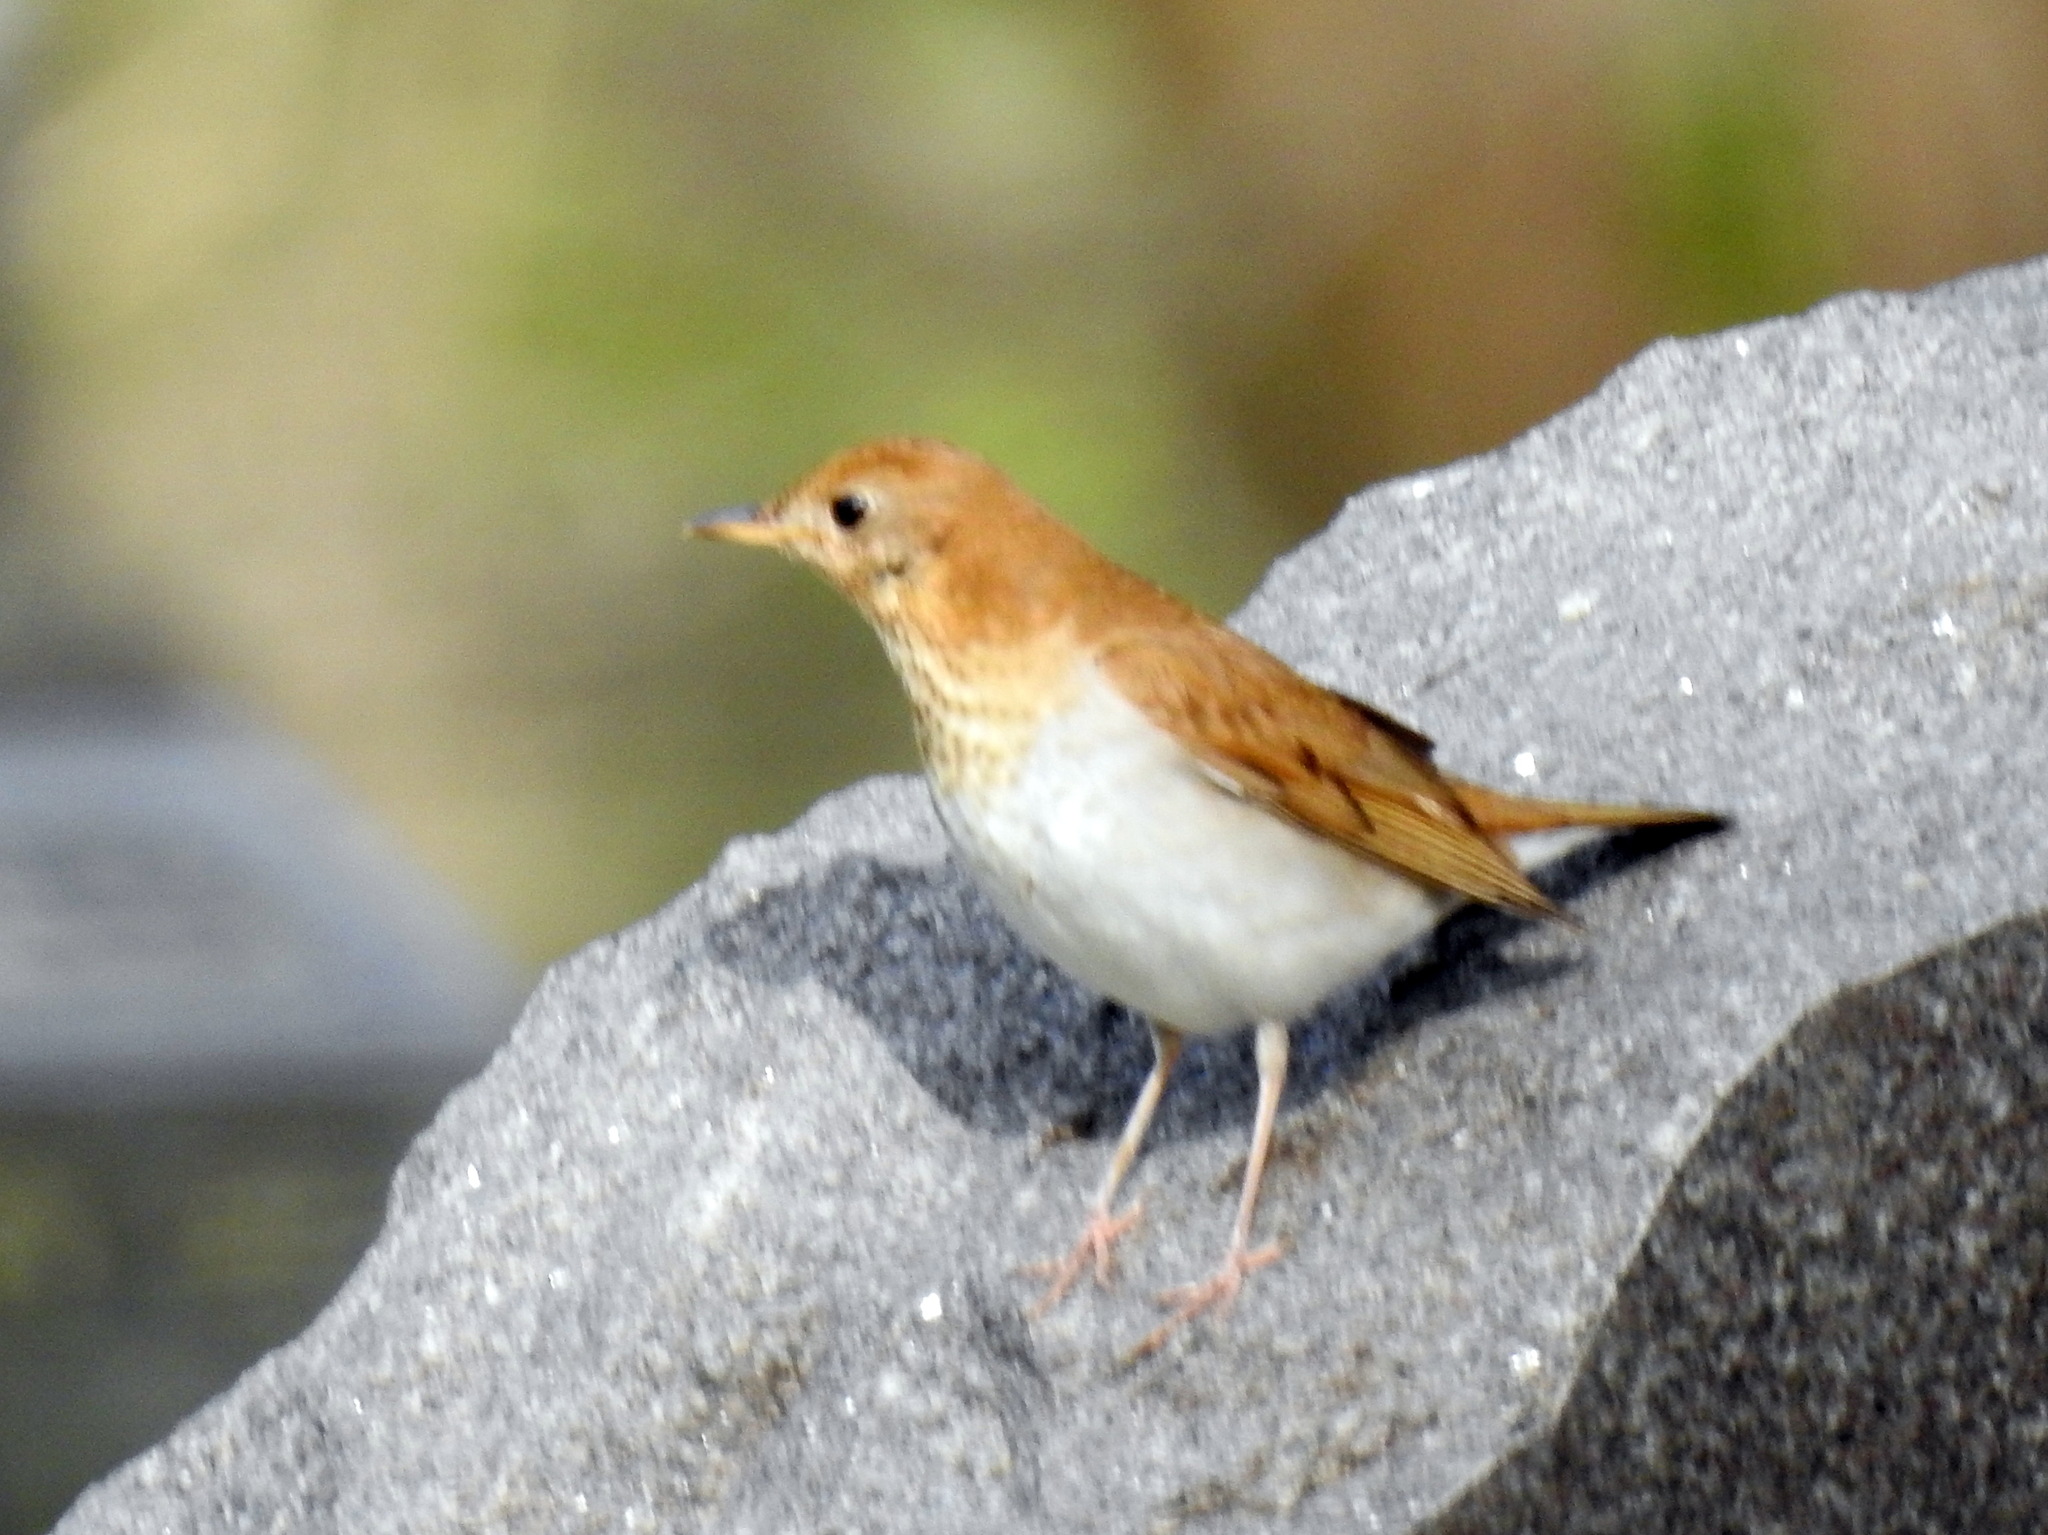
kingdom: Animalia
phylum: Chordata
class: Aves
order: Passeriformes
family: Turdidae
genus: Catharus
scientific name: Catharus fuscescens
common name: Veery
